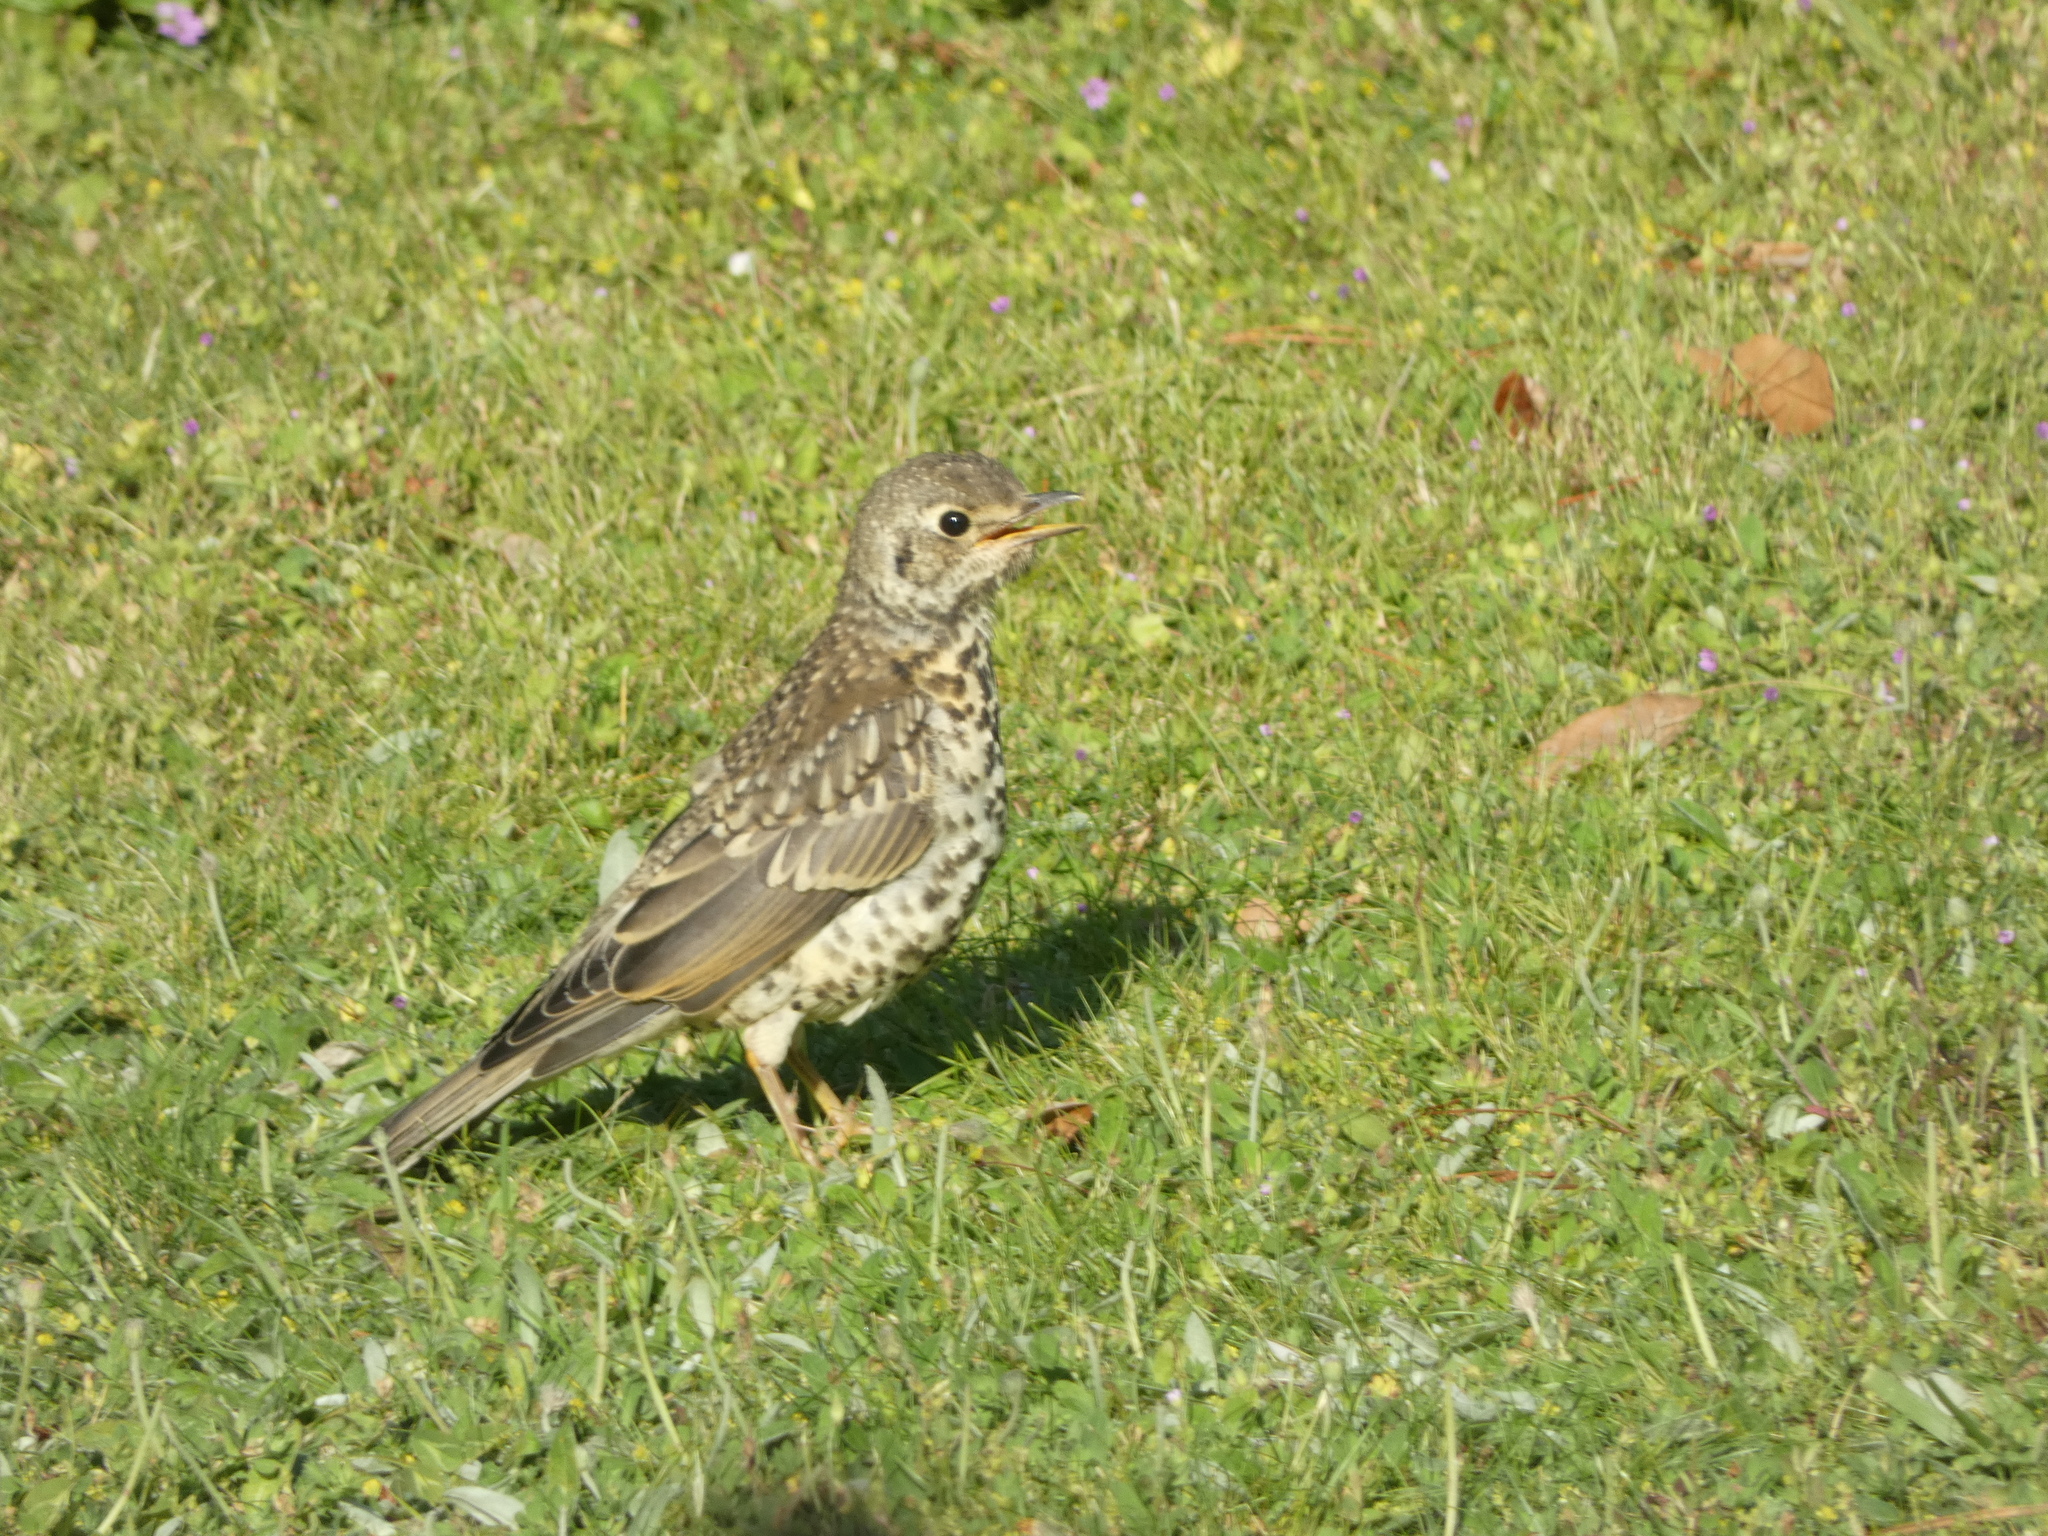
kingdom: Animalia
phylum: Chordata
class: Aves
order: Passeriformes
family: Turdidae
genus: Turdus
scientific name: Turdus viscivorus
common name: Mistle thrush
